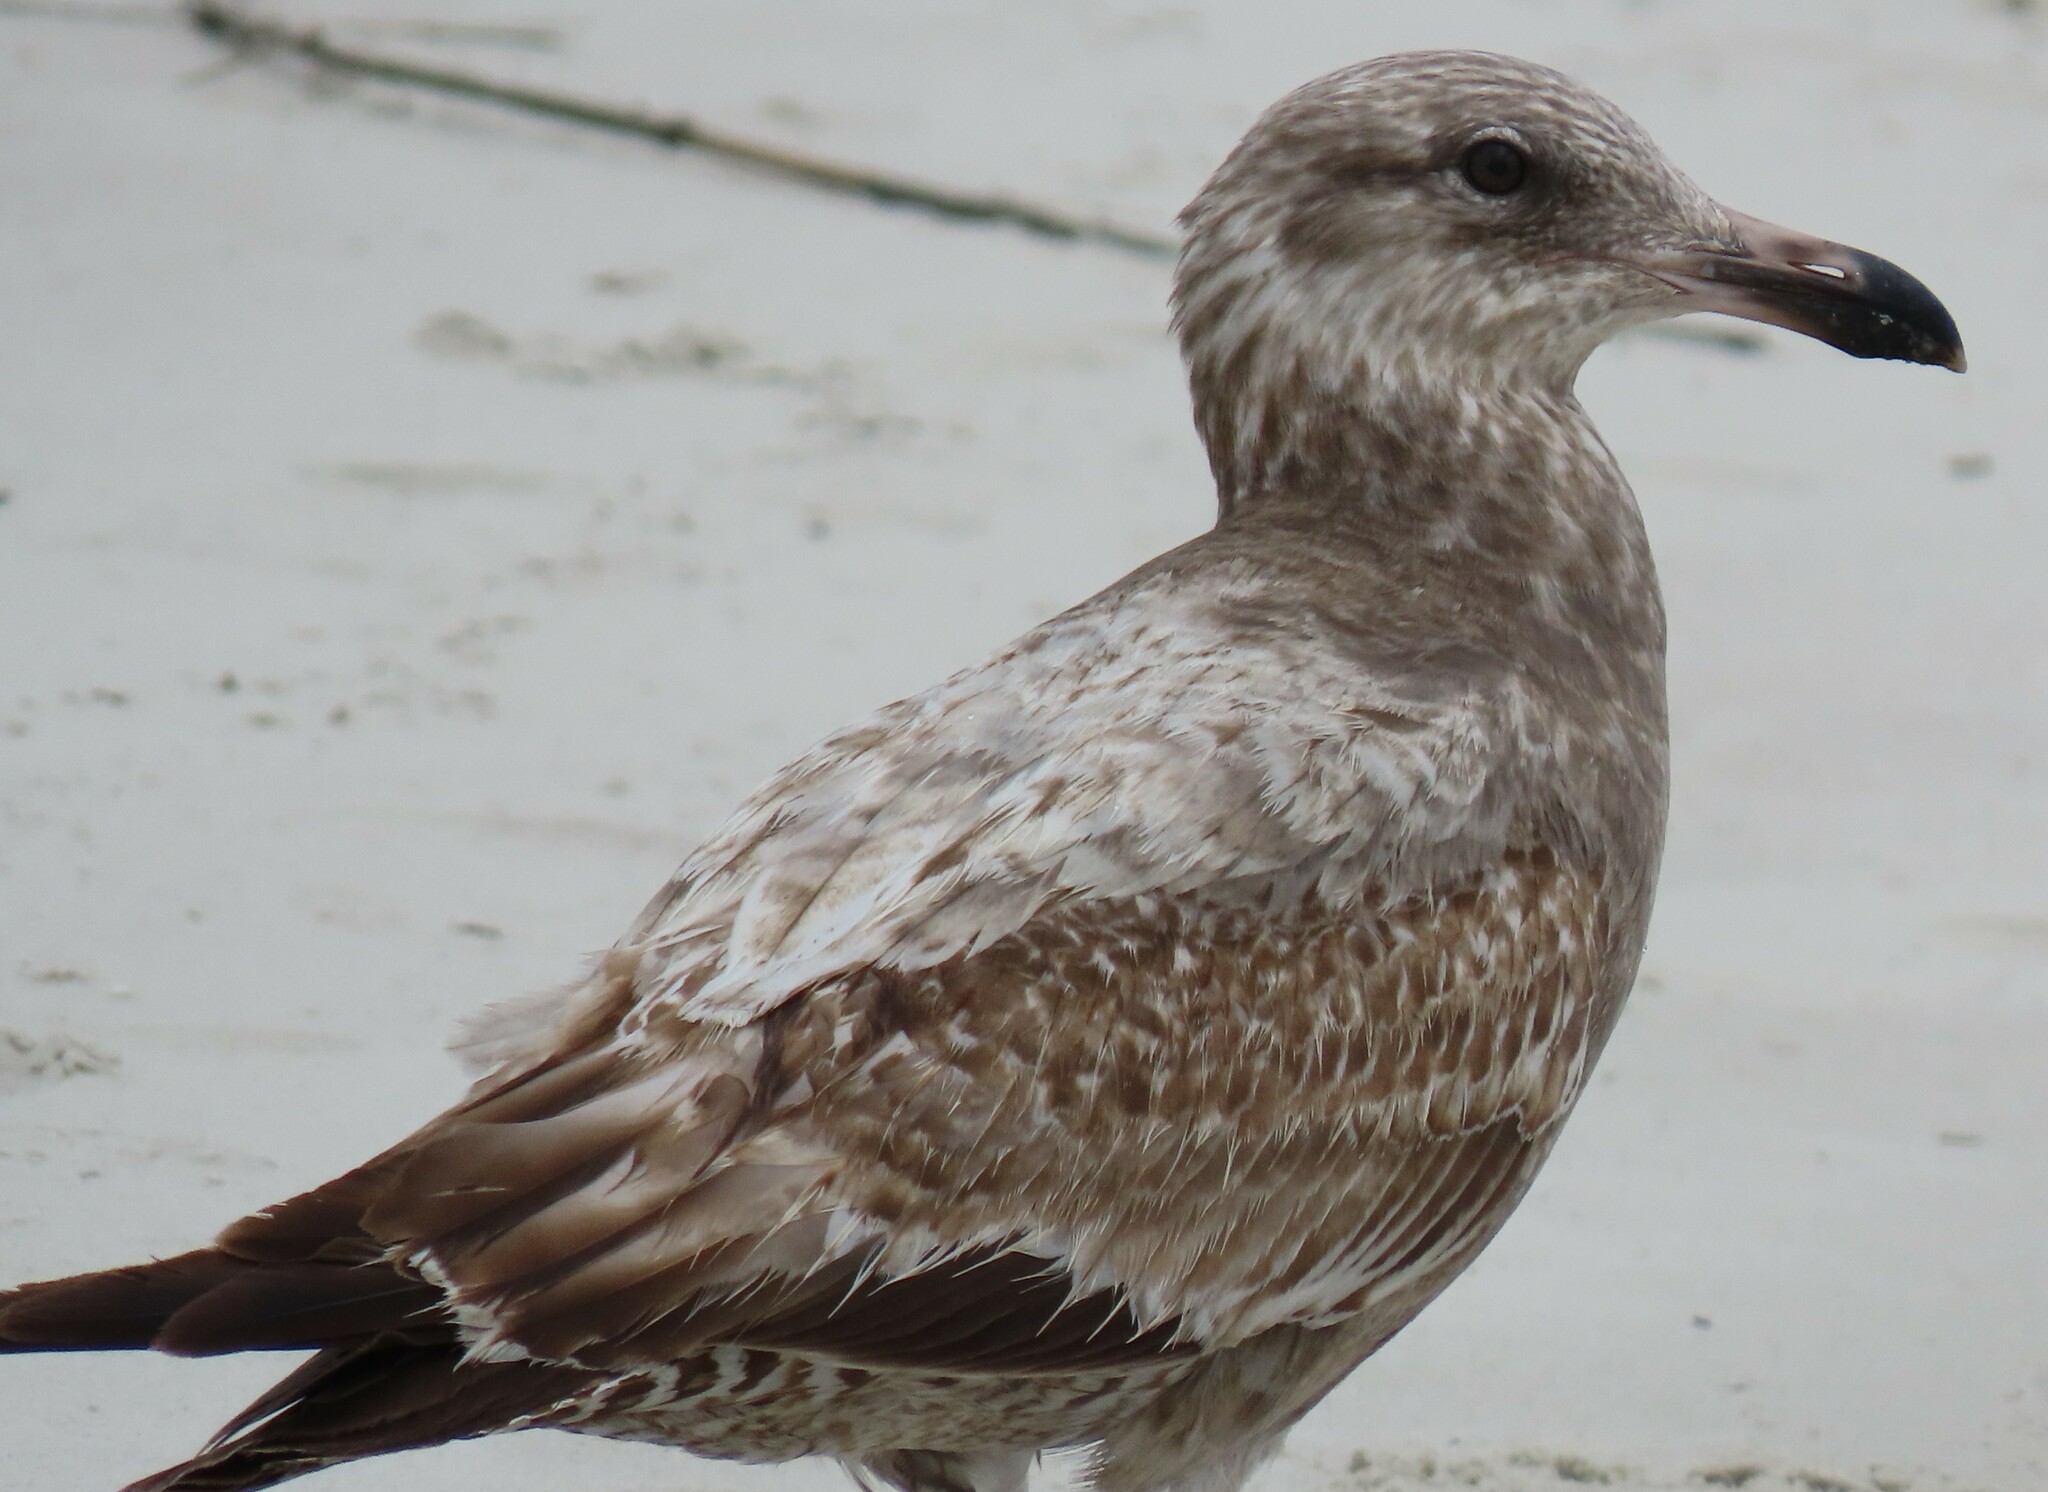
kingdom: Animalia
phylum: Chordata
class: Aves
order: Charadriiformes
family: Laridae
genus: Larus
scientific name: Larus argentatus
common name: Herring gull
